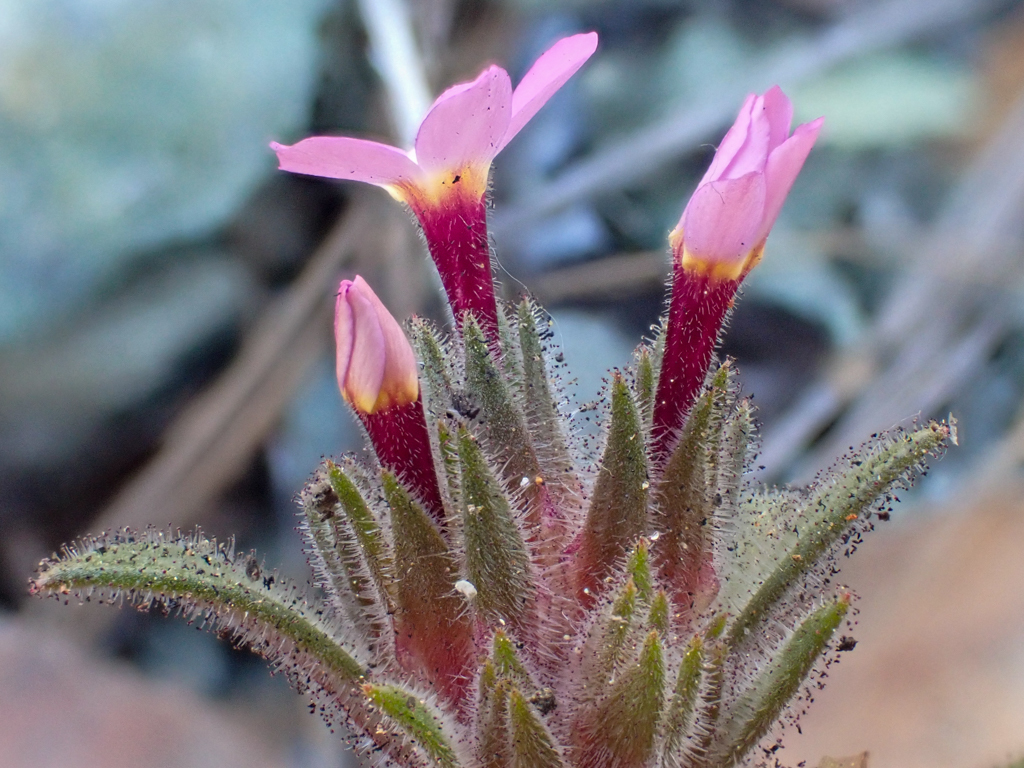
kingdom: Plantae
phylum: Tracheophyta
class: Magnoliopsida
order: Ericales
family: Polemoniaceae
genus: Collomia
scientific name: Collomia diversifolia
